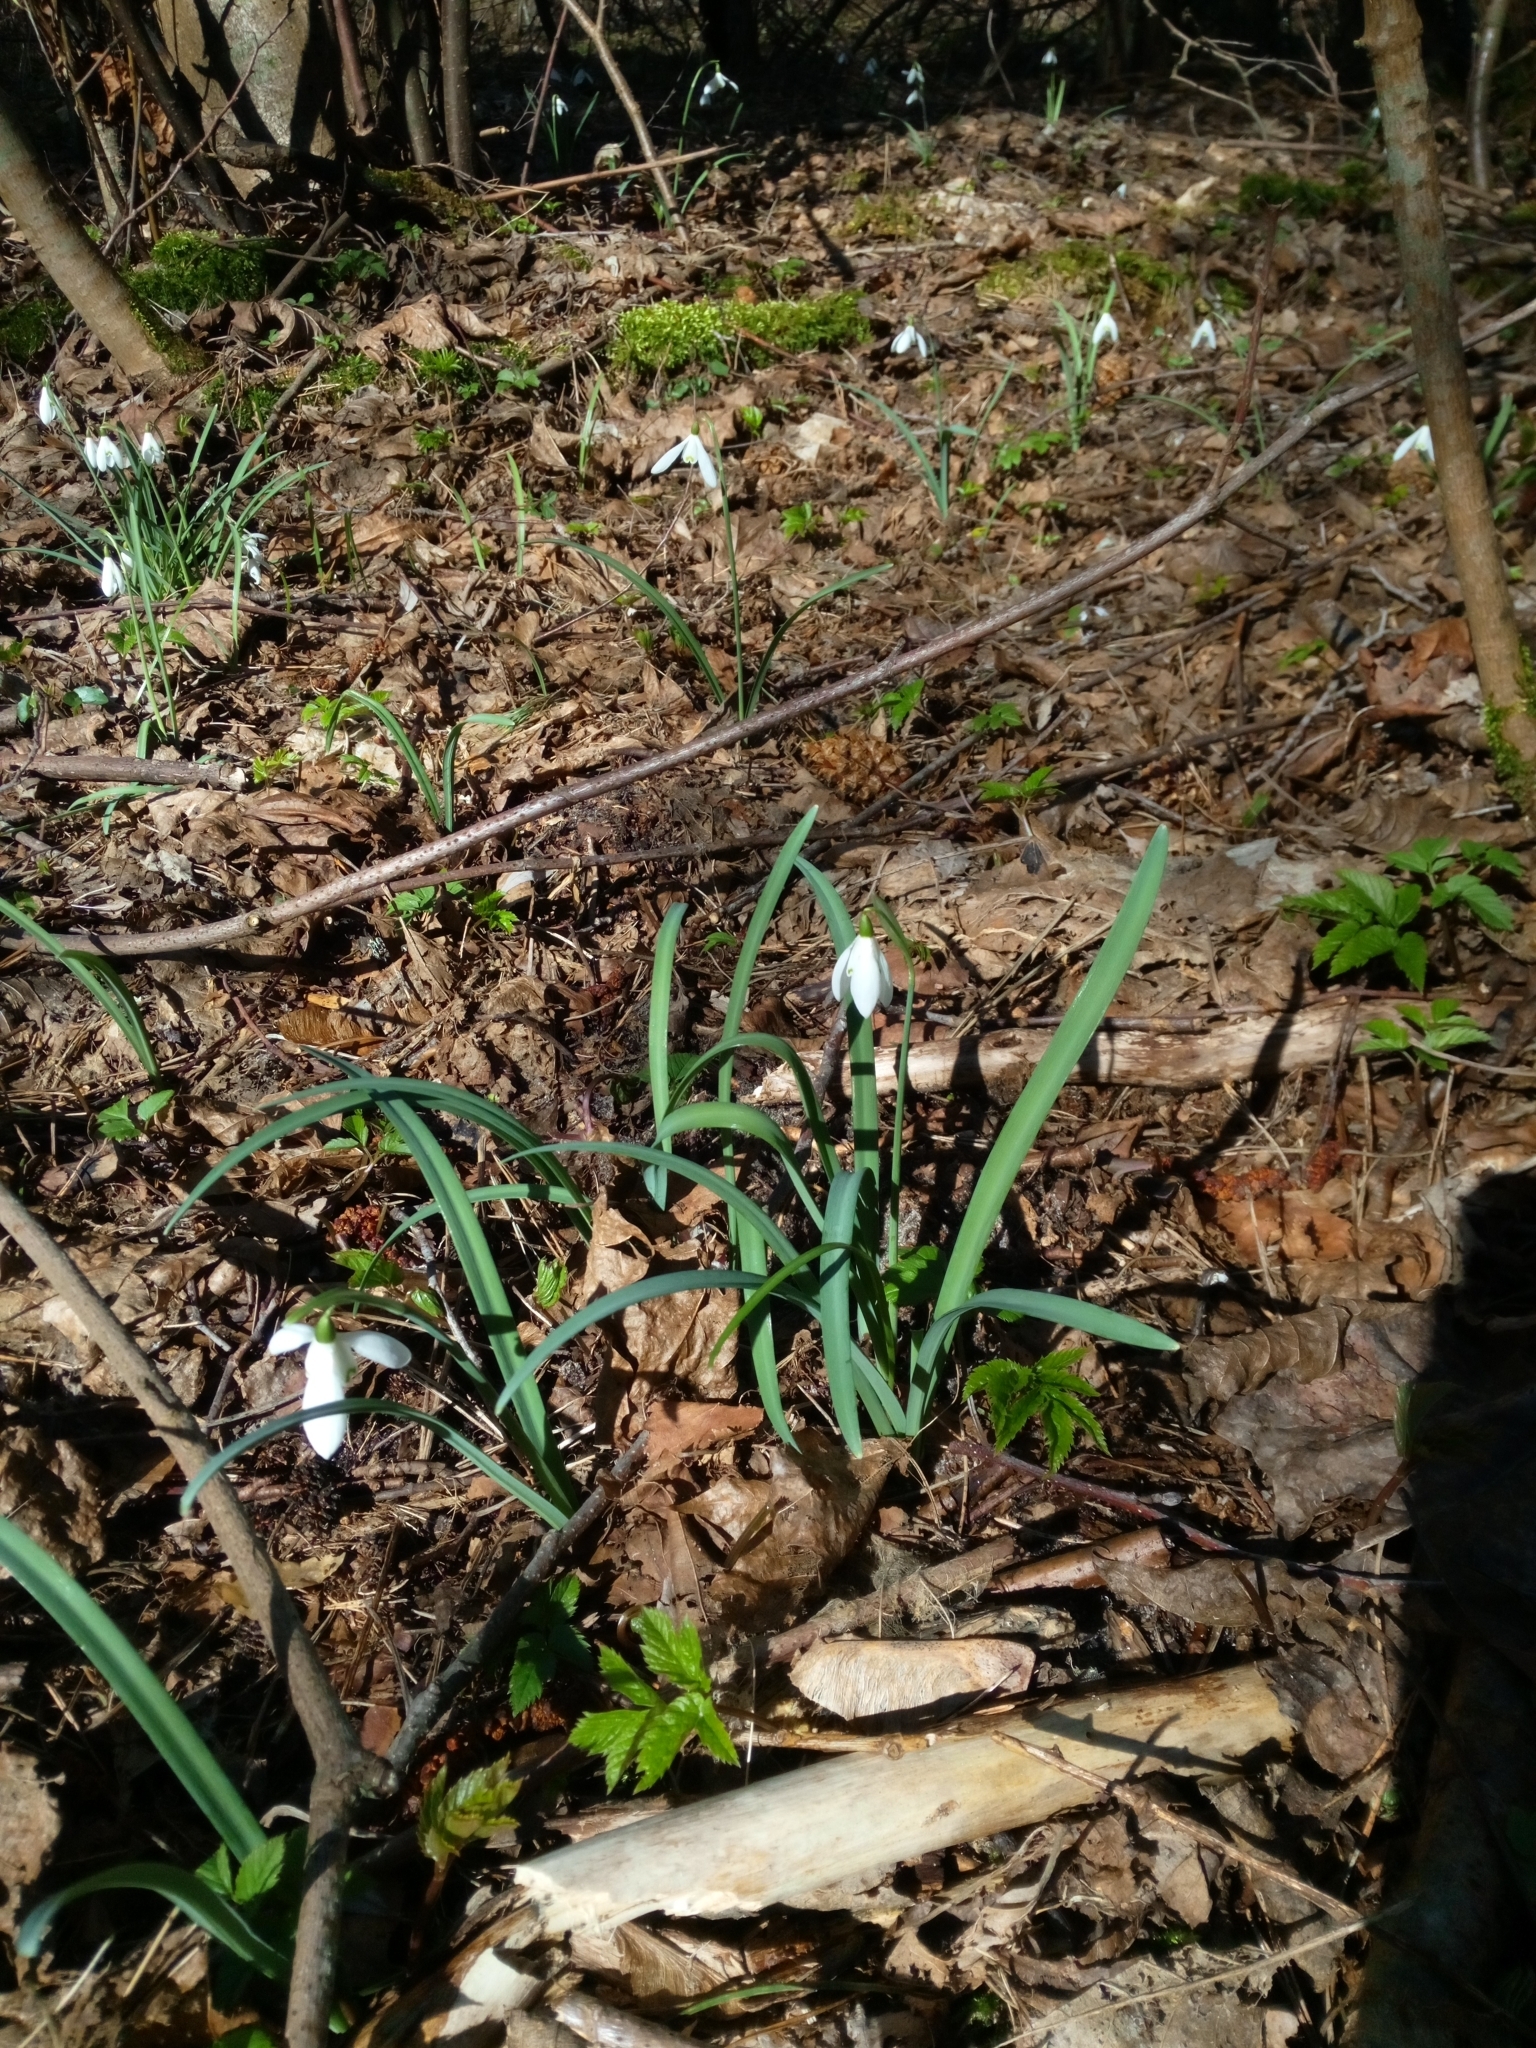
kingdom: Plantae
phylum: Tracheophyta
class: Liliopsida
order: Asparagales
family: Amaryllidaceae
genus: Galanthus
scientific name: Galanthus nivalis
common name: Snowdrop
